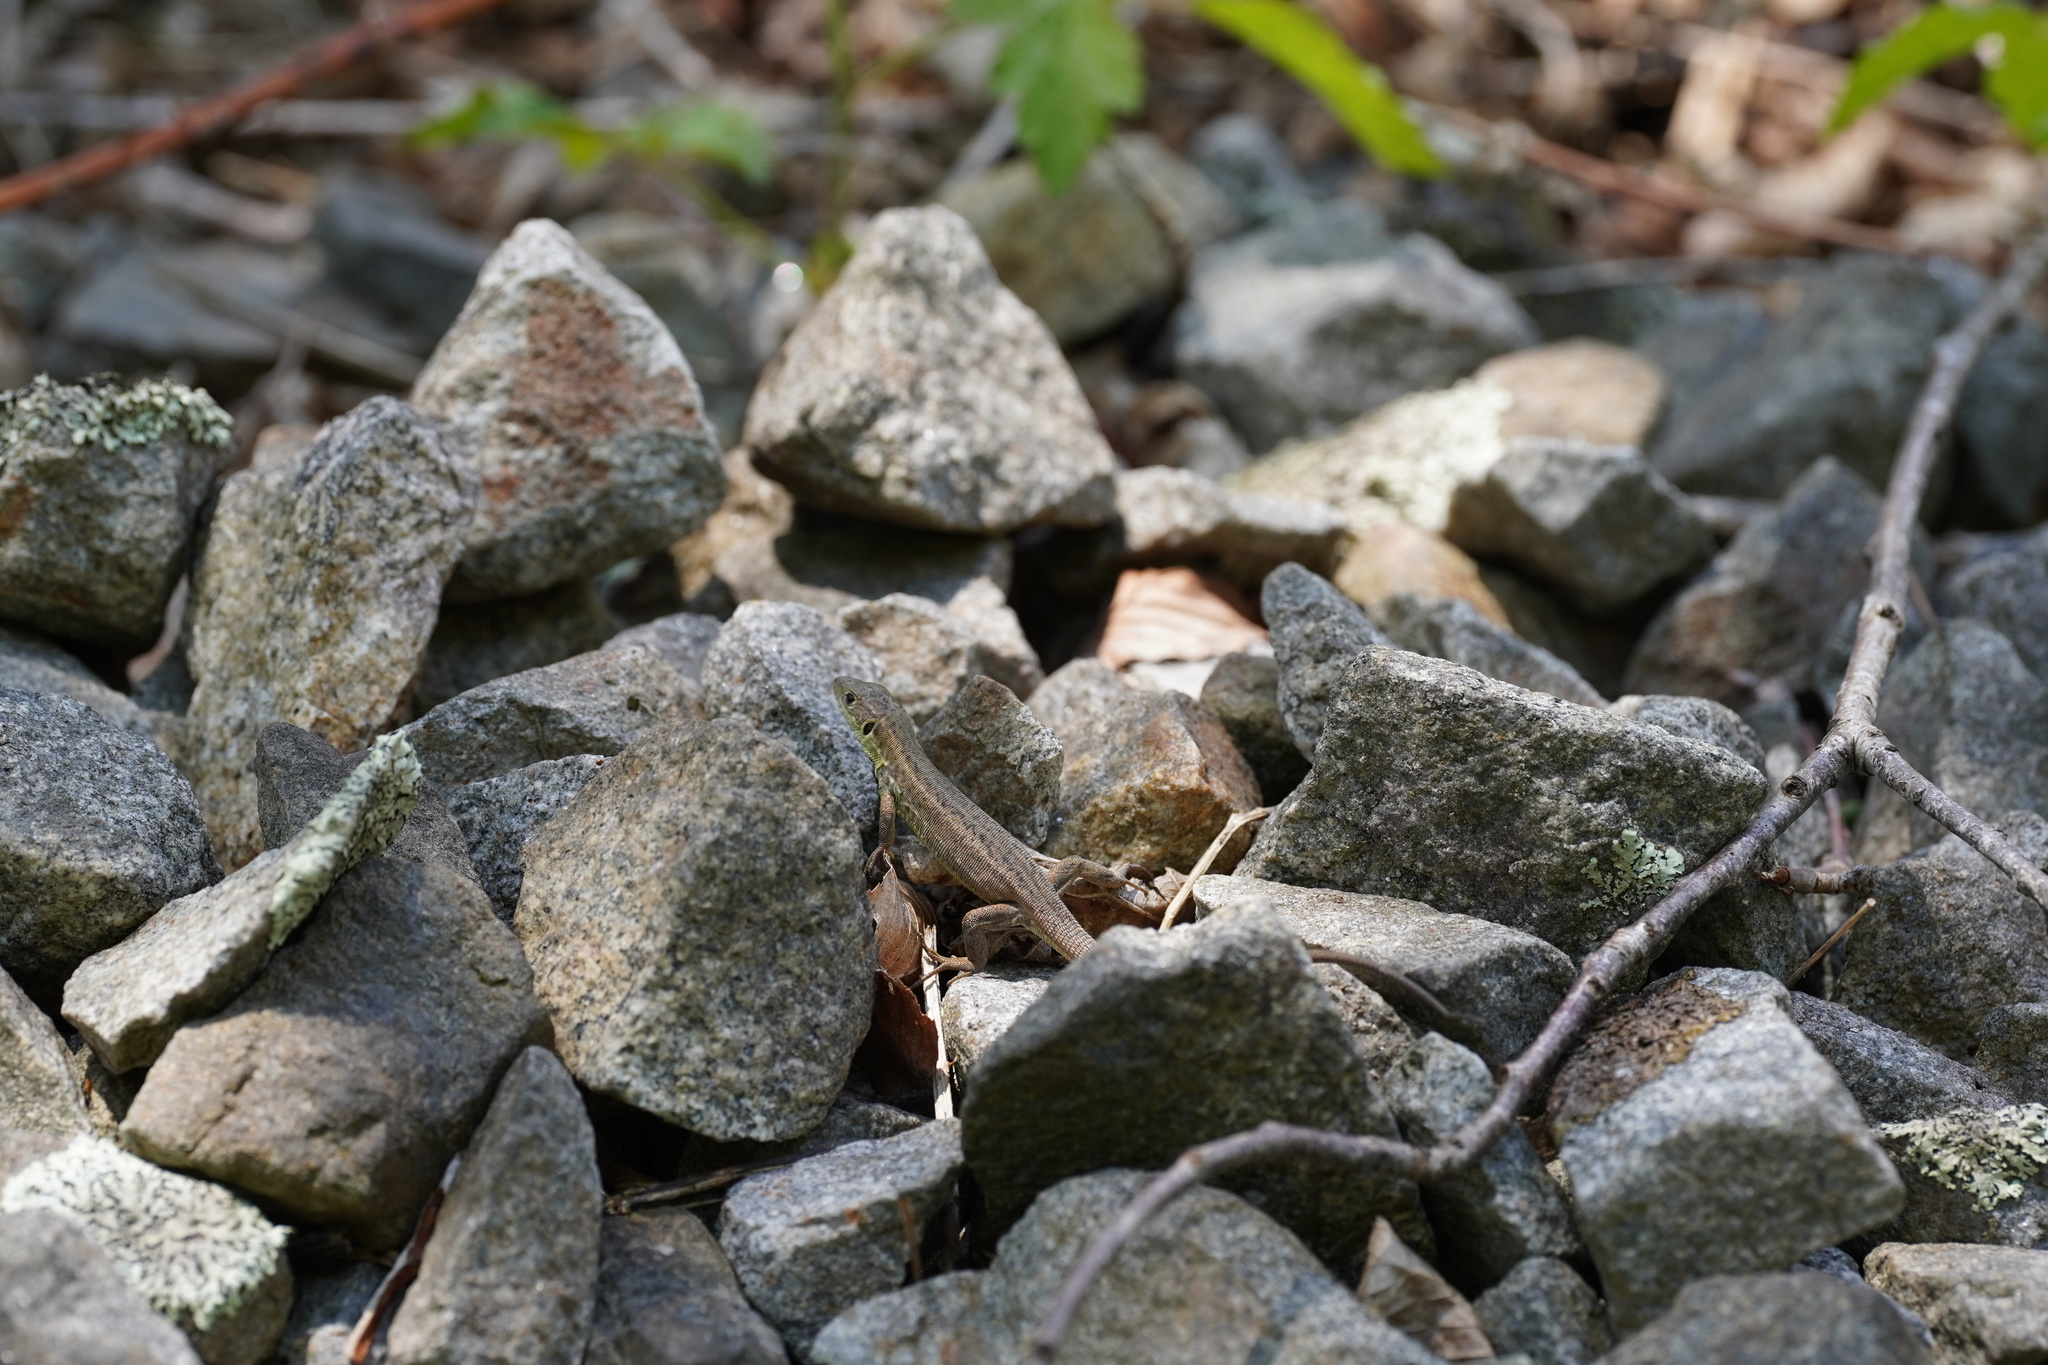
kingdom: Animalia
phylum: Chordata
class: Squamata
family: Lacertidae
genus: Lacerta
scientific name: Lacerta viridis
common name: European green lizard
